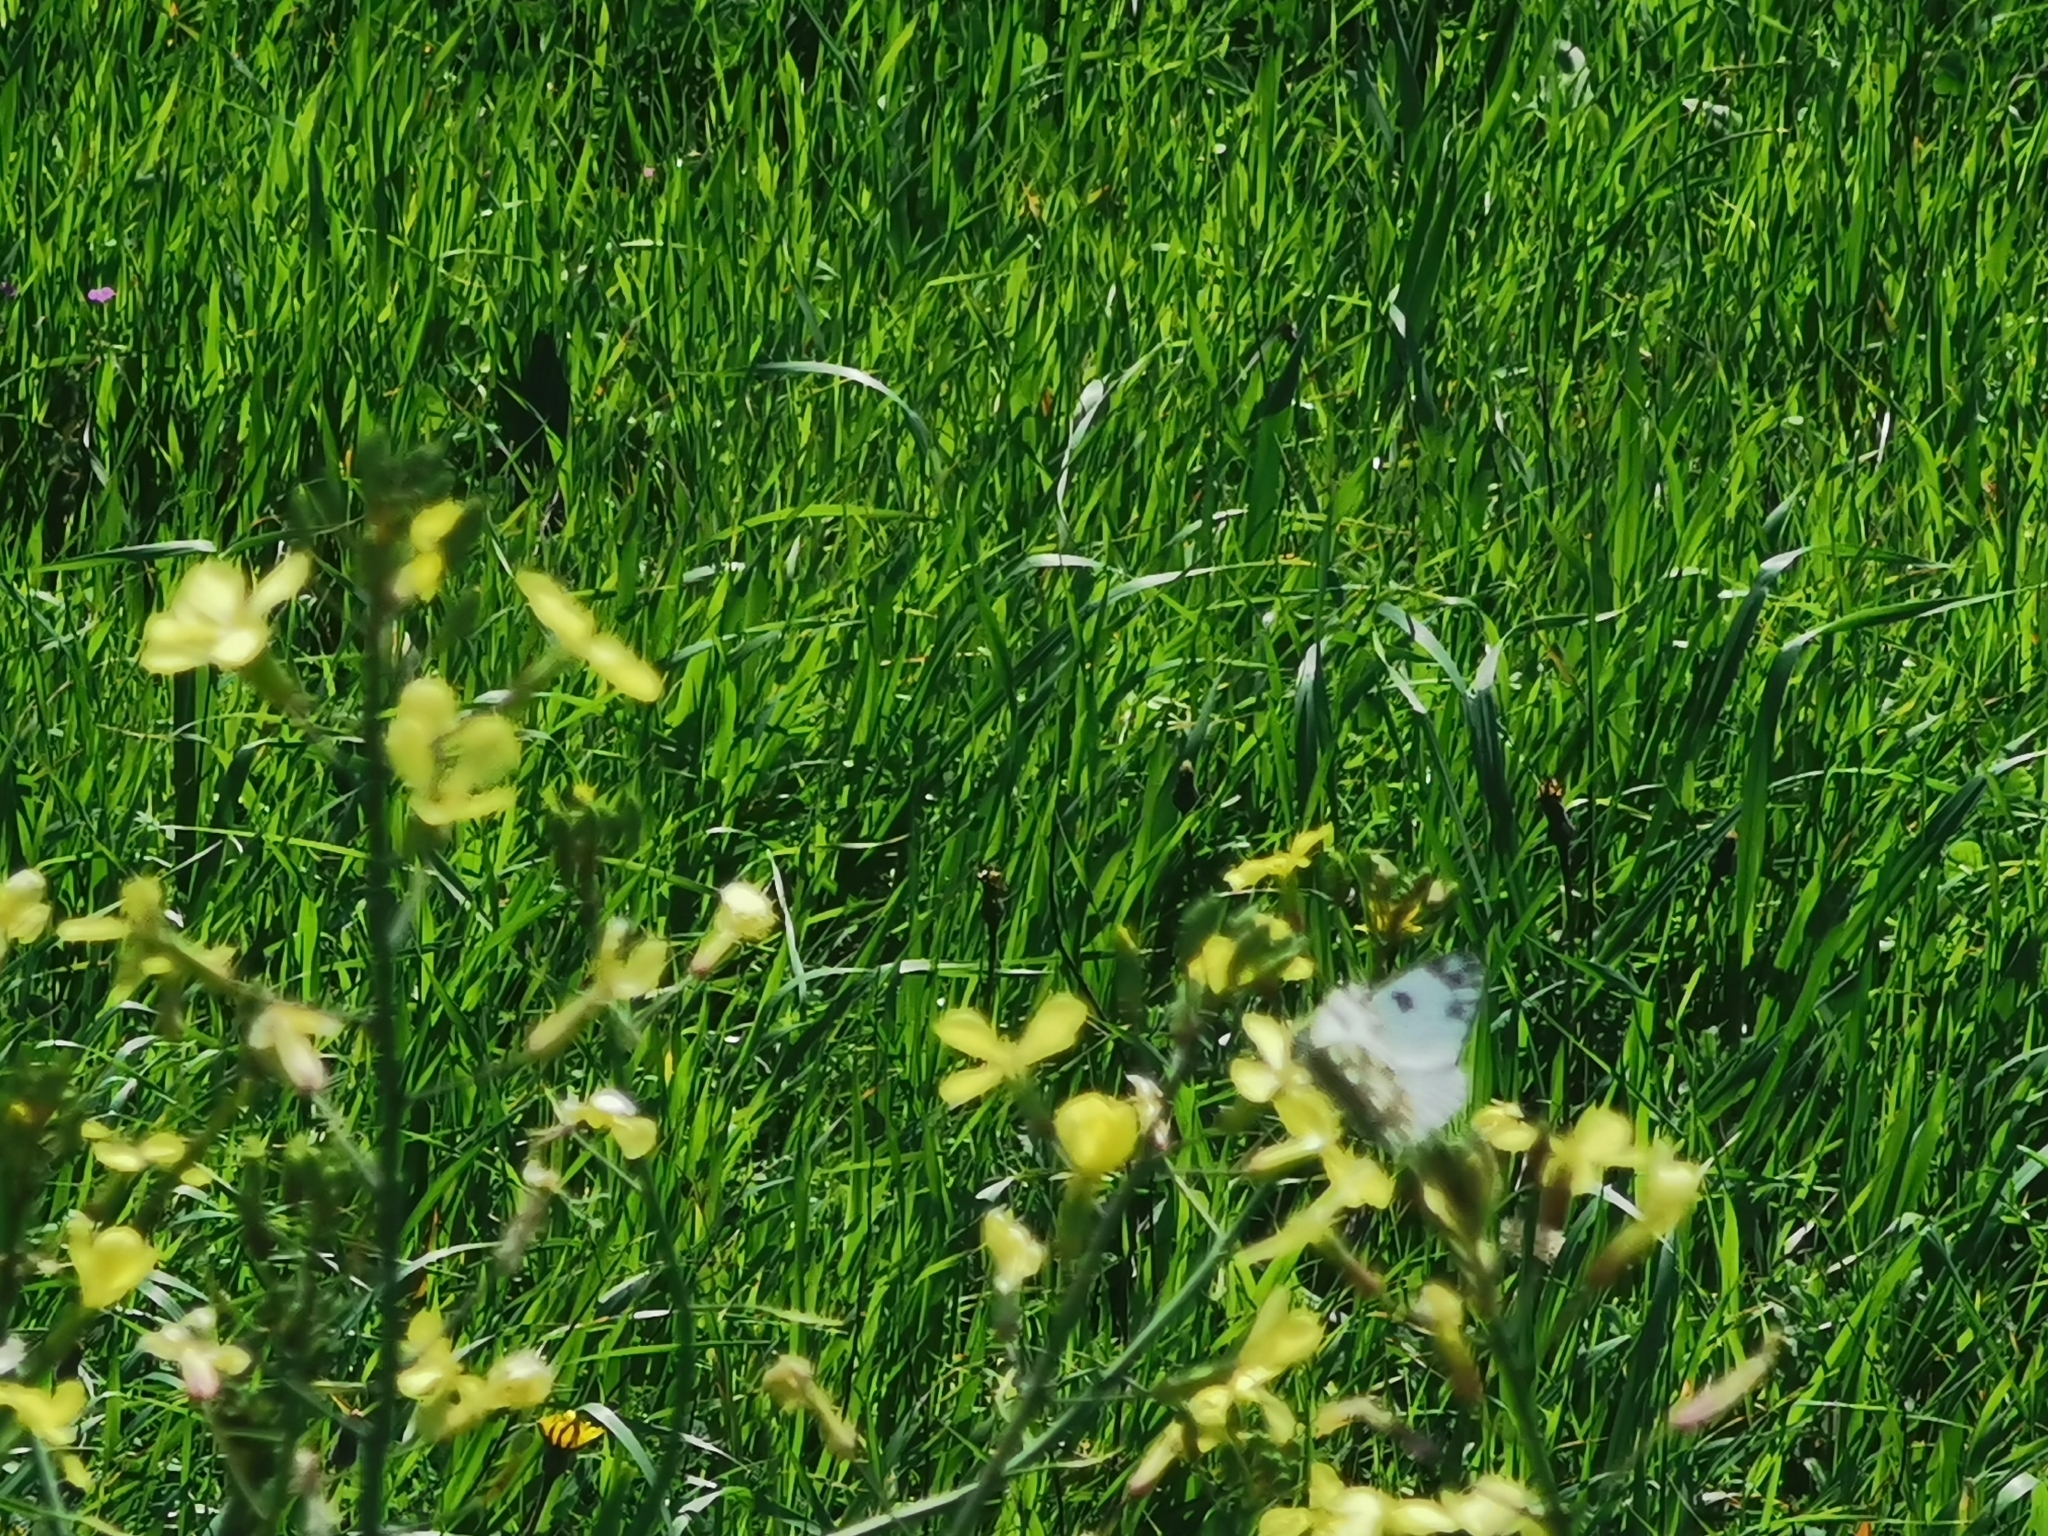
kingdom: Animalia
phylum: Arthropoda
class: Insecta
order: Lepidoptera
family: Pieridae
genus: Pontia
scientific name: Pontia edusa
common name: Eastern bath white
